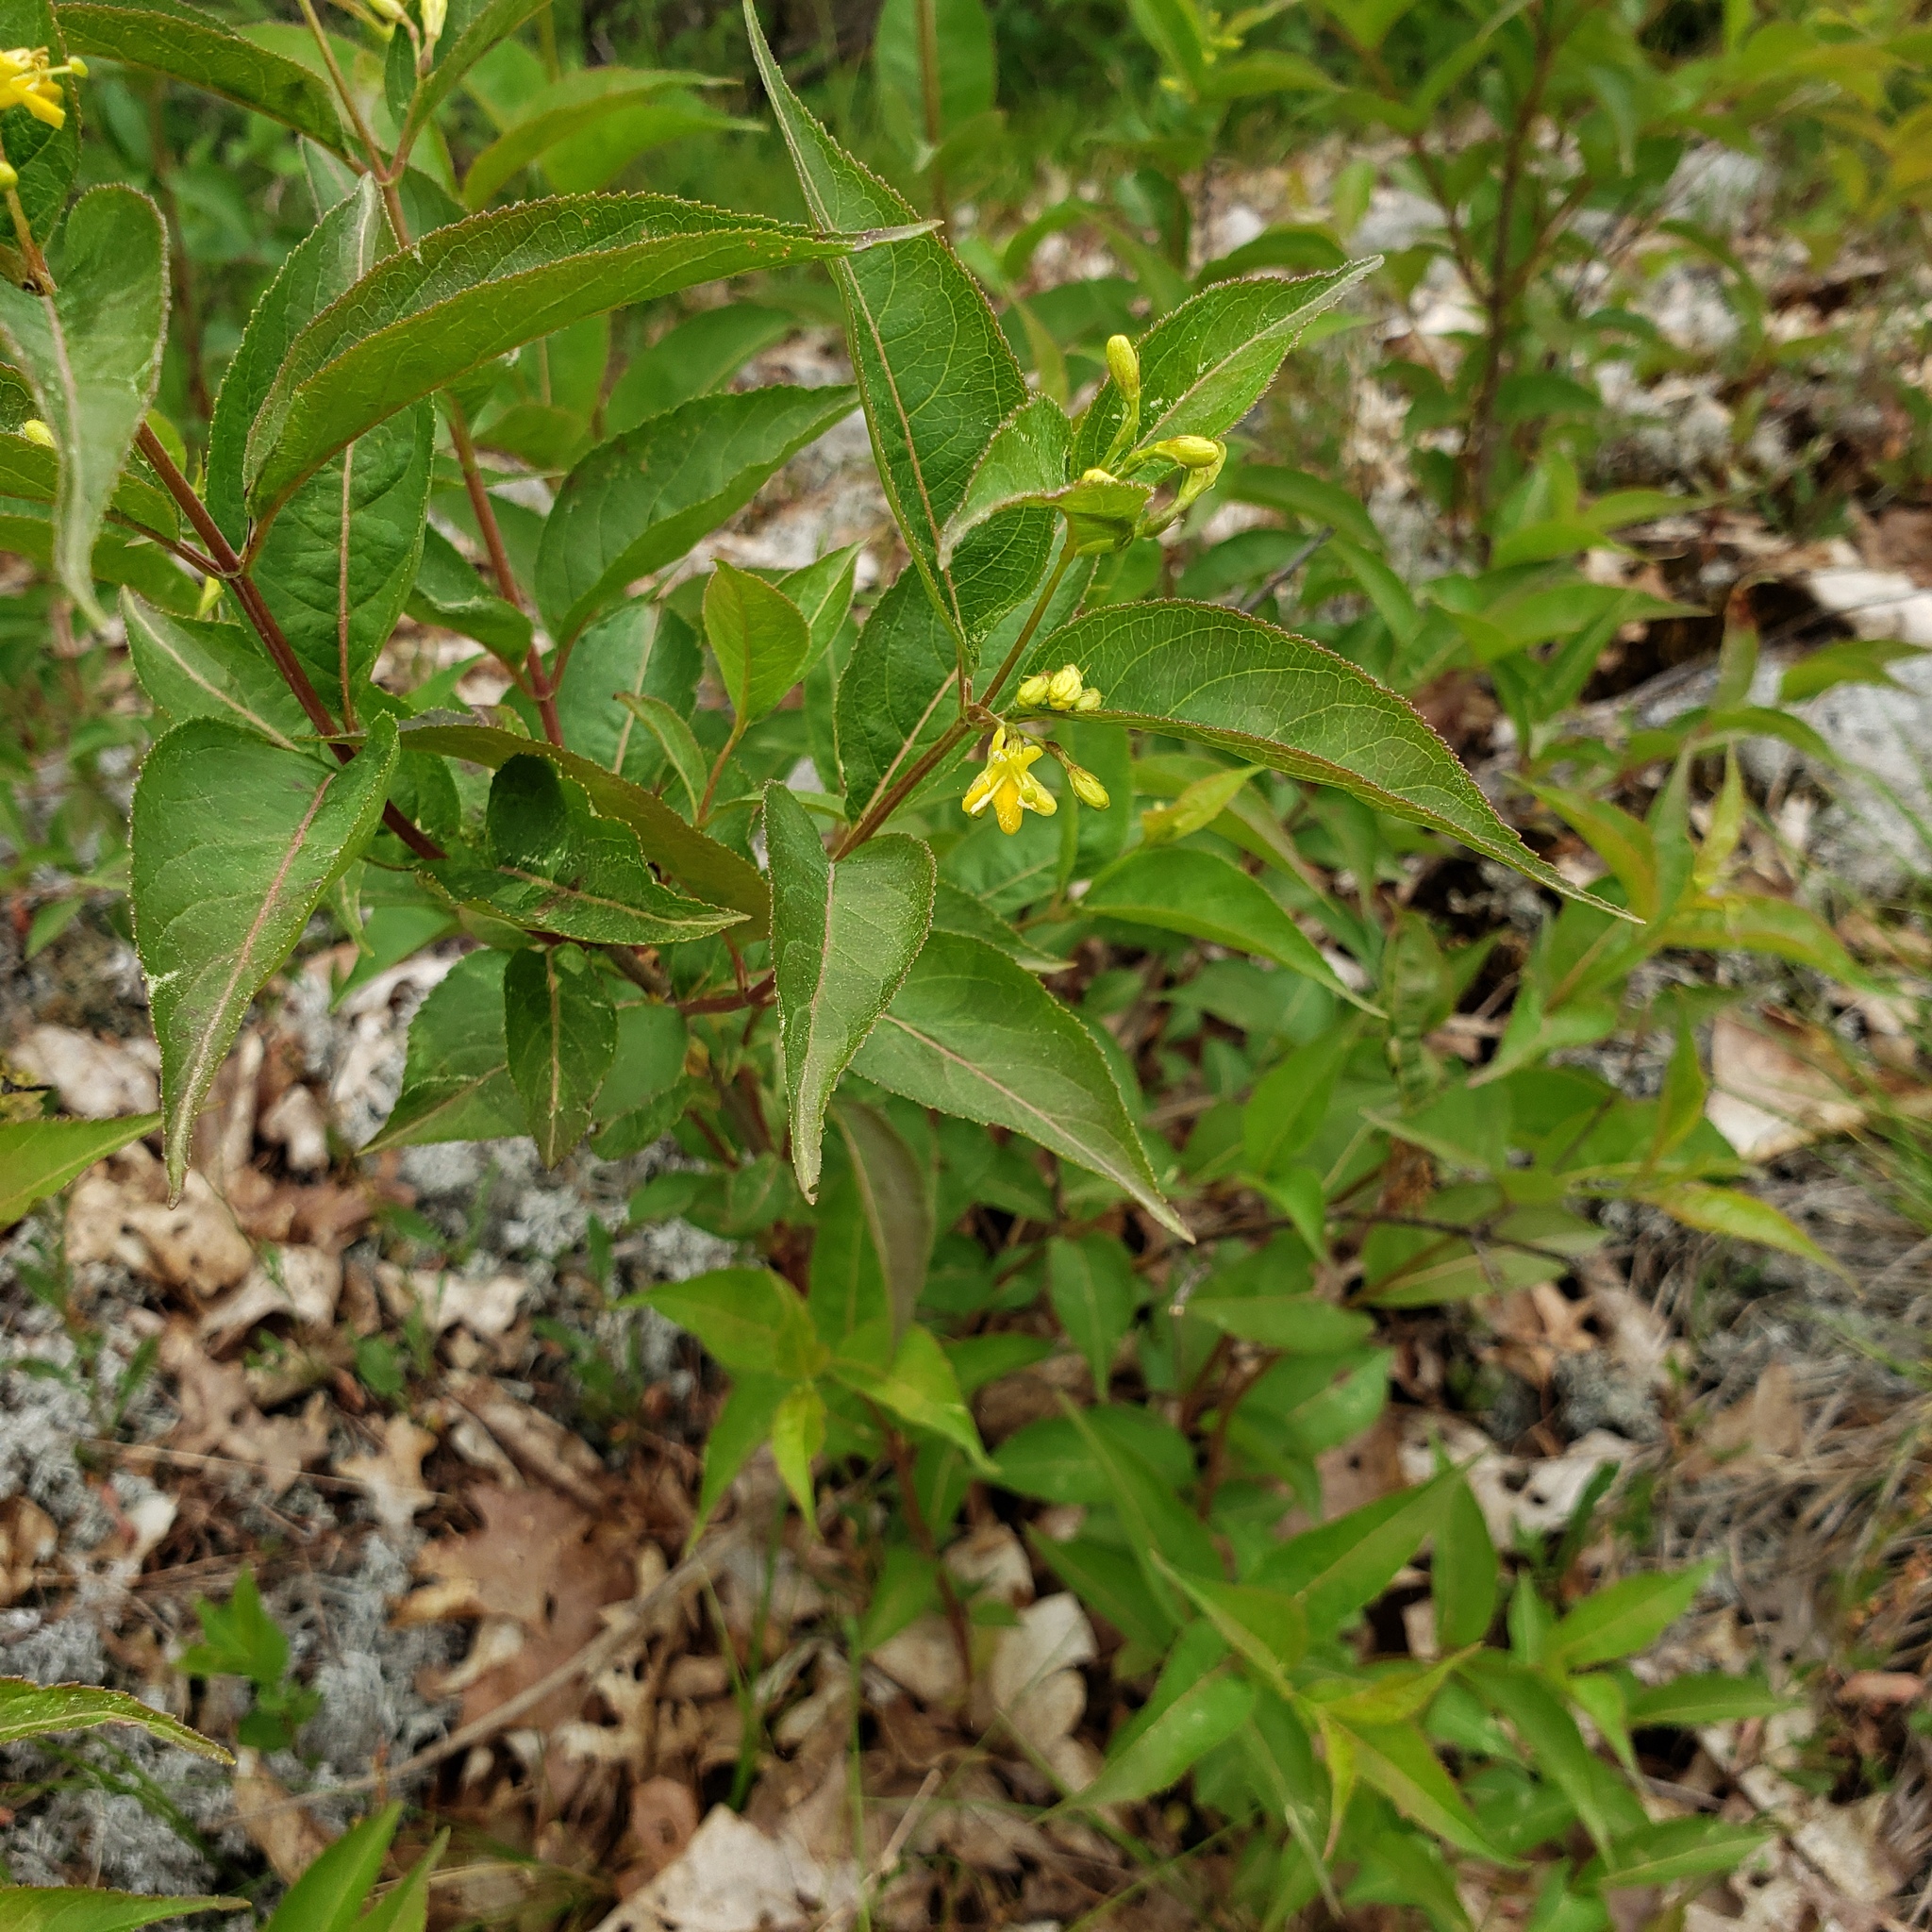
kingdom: Plantae
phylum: Tracheophyta
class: Magnoliopsida
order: Dipsacales
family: Caprifoliaceae
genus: Diervilla
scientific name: Diervilla lonicera
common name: Bush-honeysuckle
